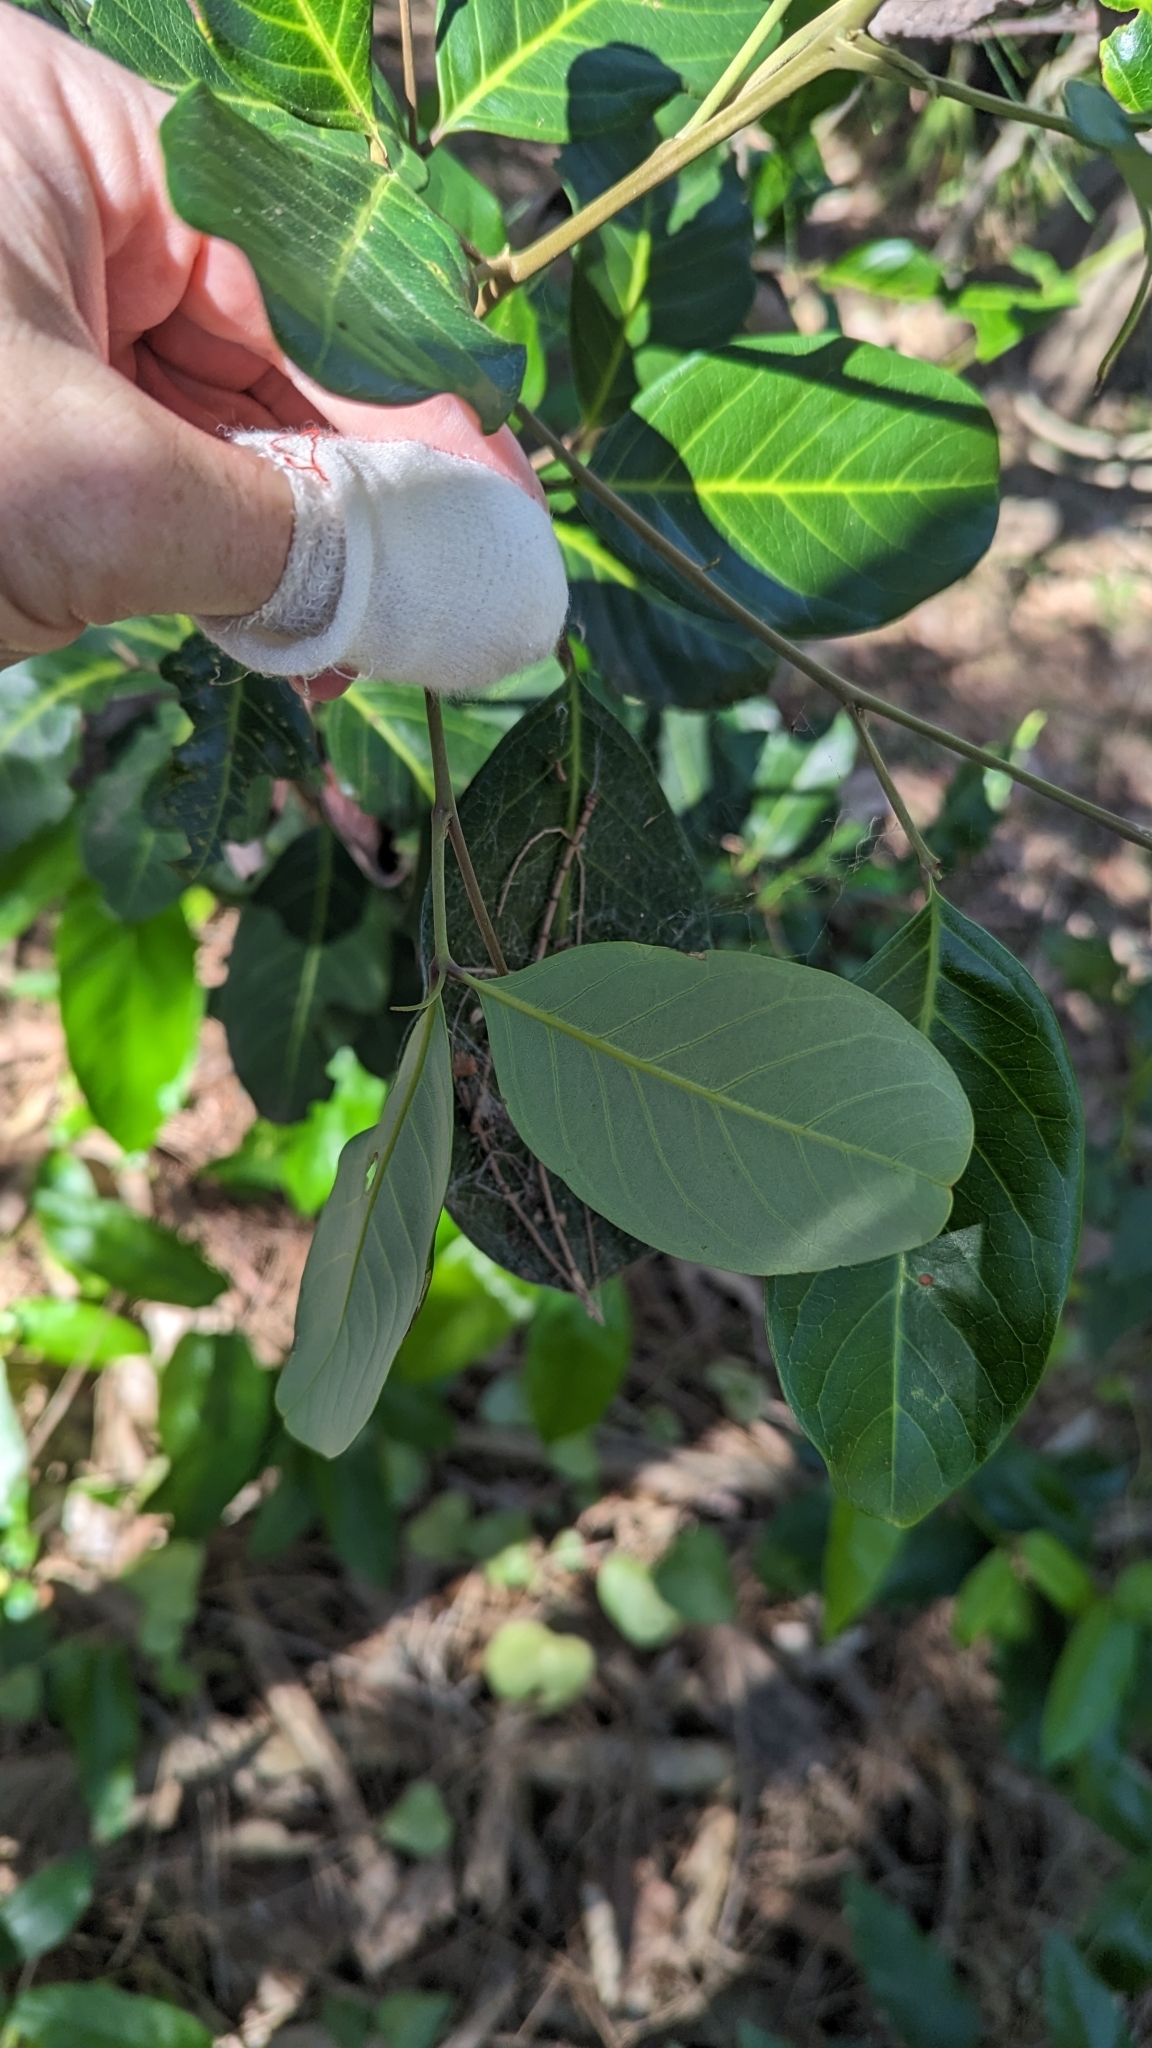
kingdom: Plantae
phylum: Tracheophyta
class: Magnoliopsida
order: Sapindales
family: Sapindaceae
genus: Alectryon
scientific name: Alectryon coriaceus
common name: Beach alectryon
